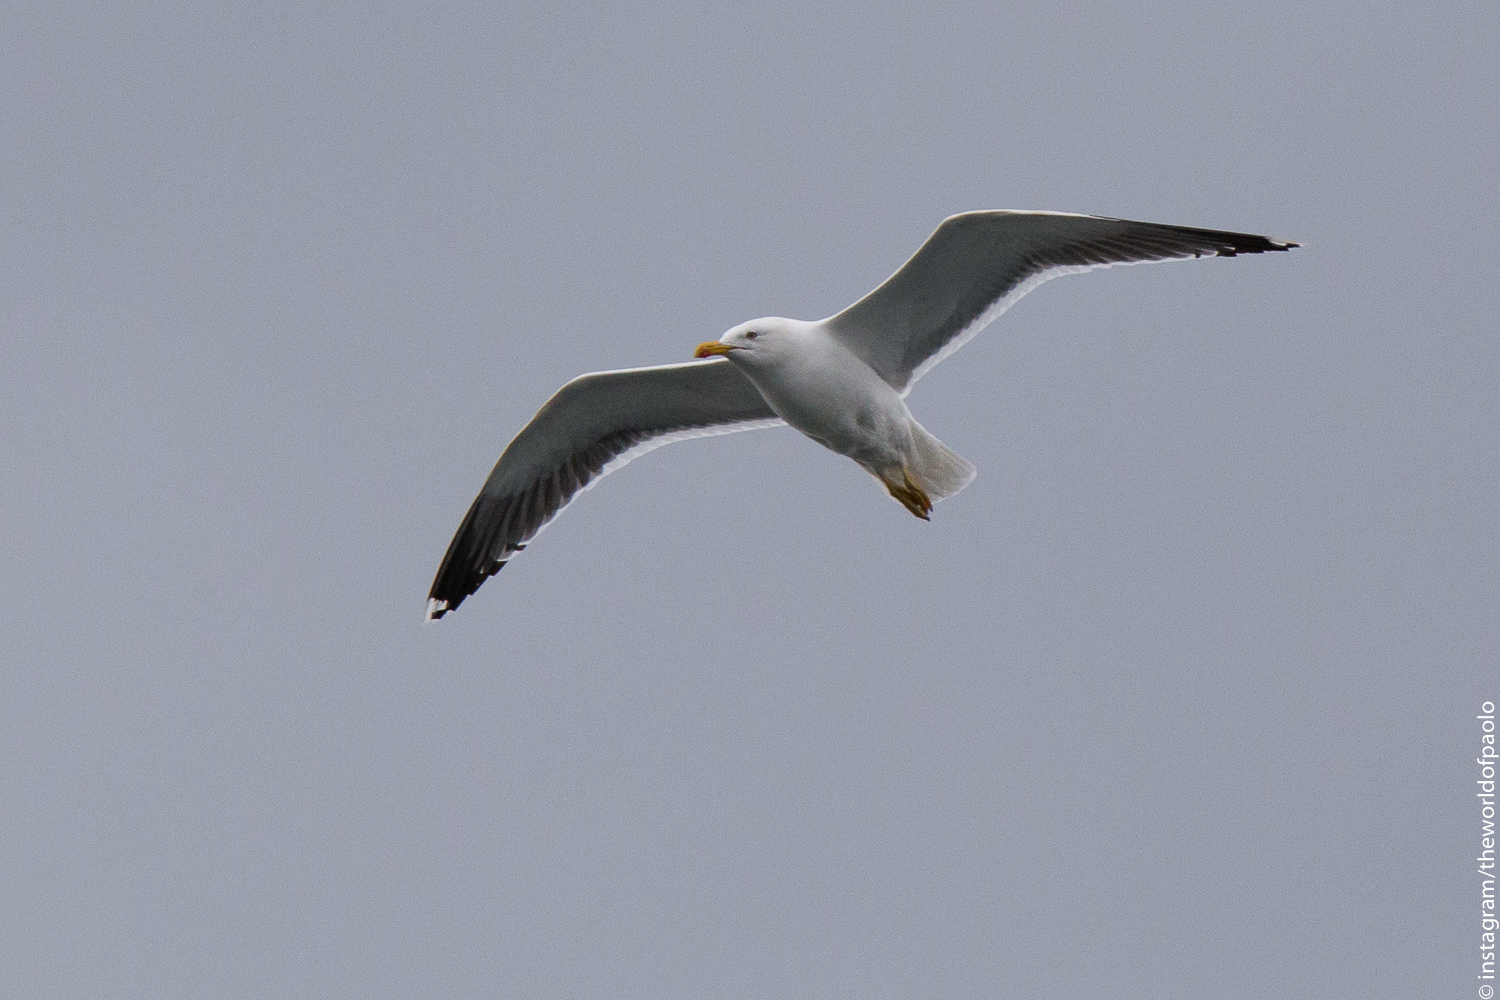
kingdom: Animalia
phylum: Chordata
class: Aves
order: Charadriiformes
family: Laridae
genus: Larus
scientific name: Larus fuscus
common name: Lesser black-backed gull
